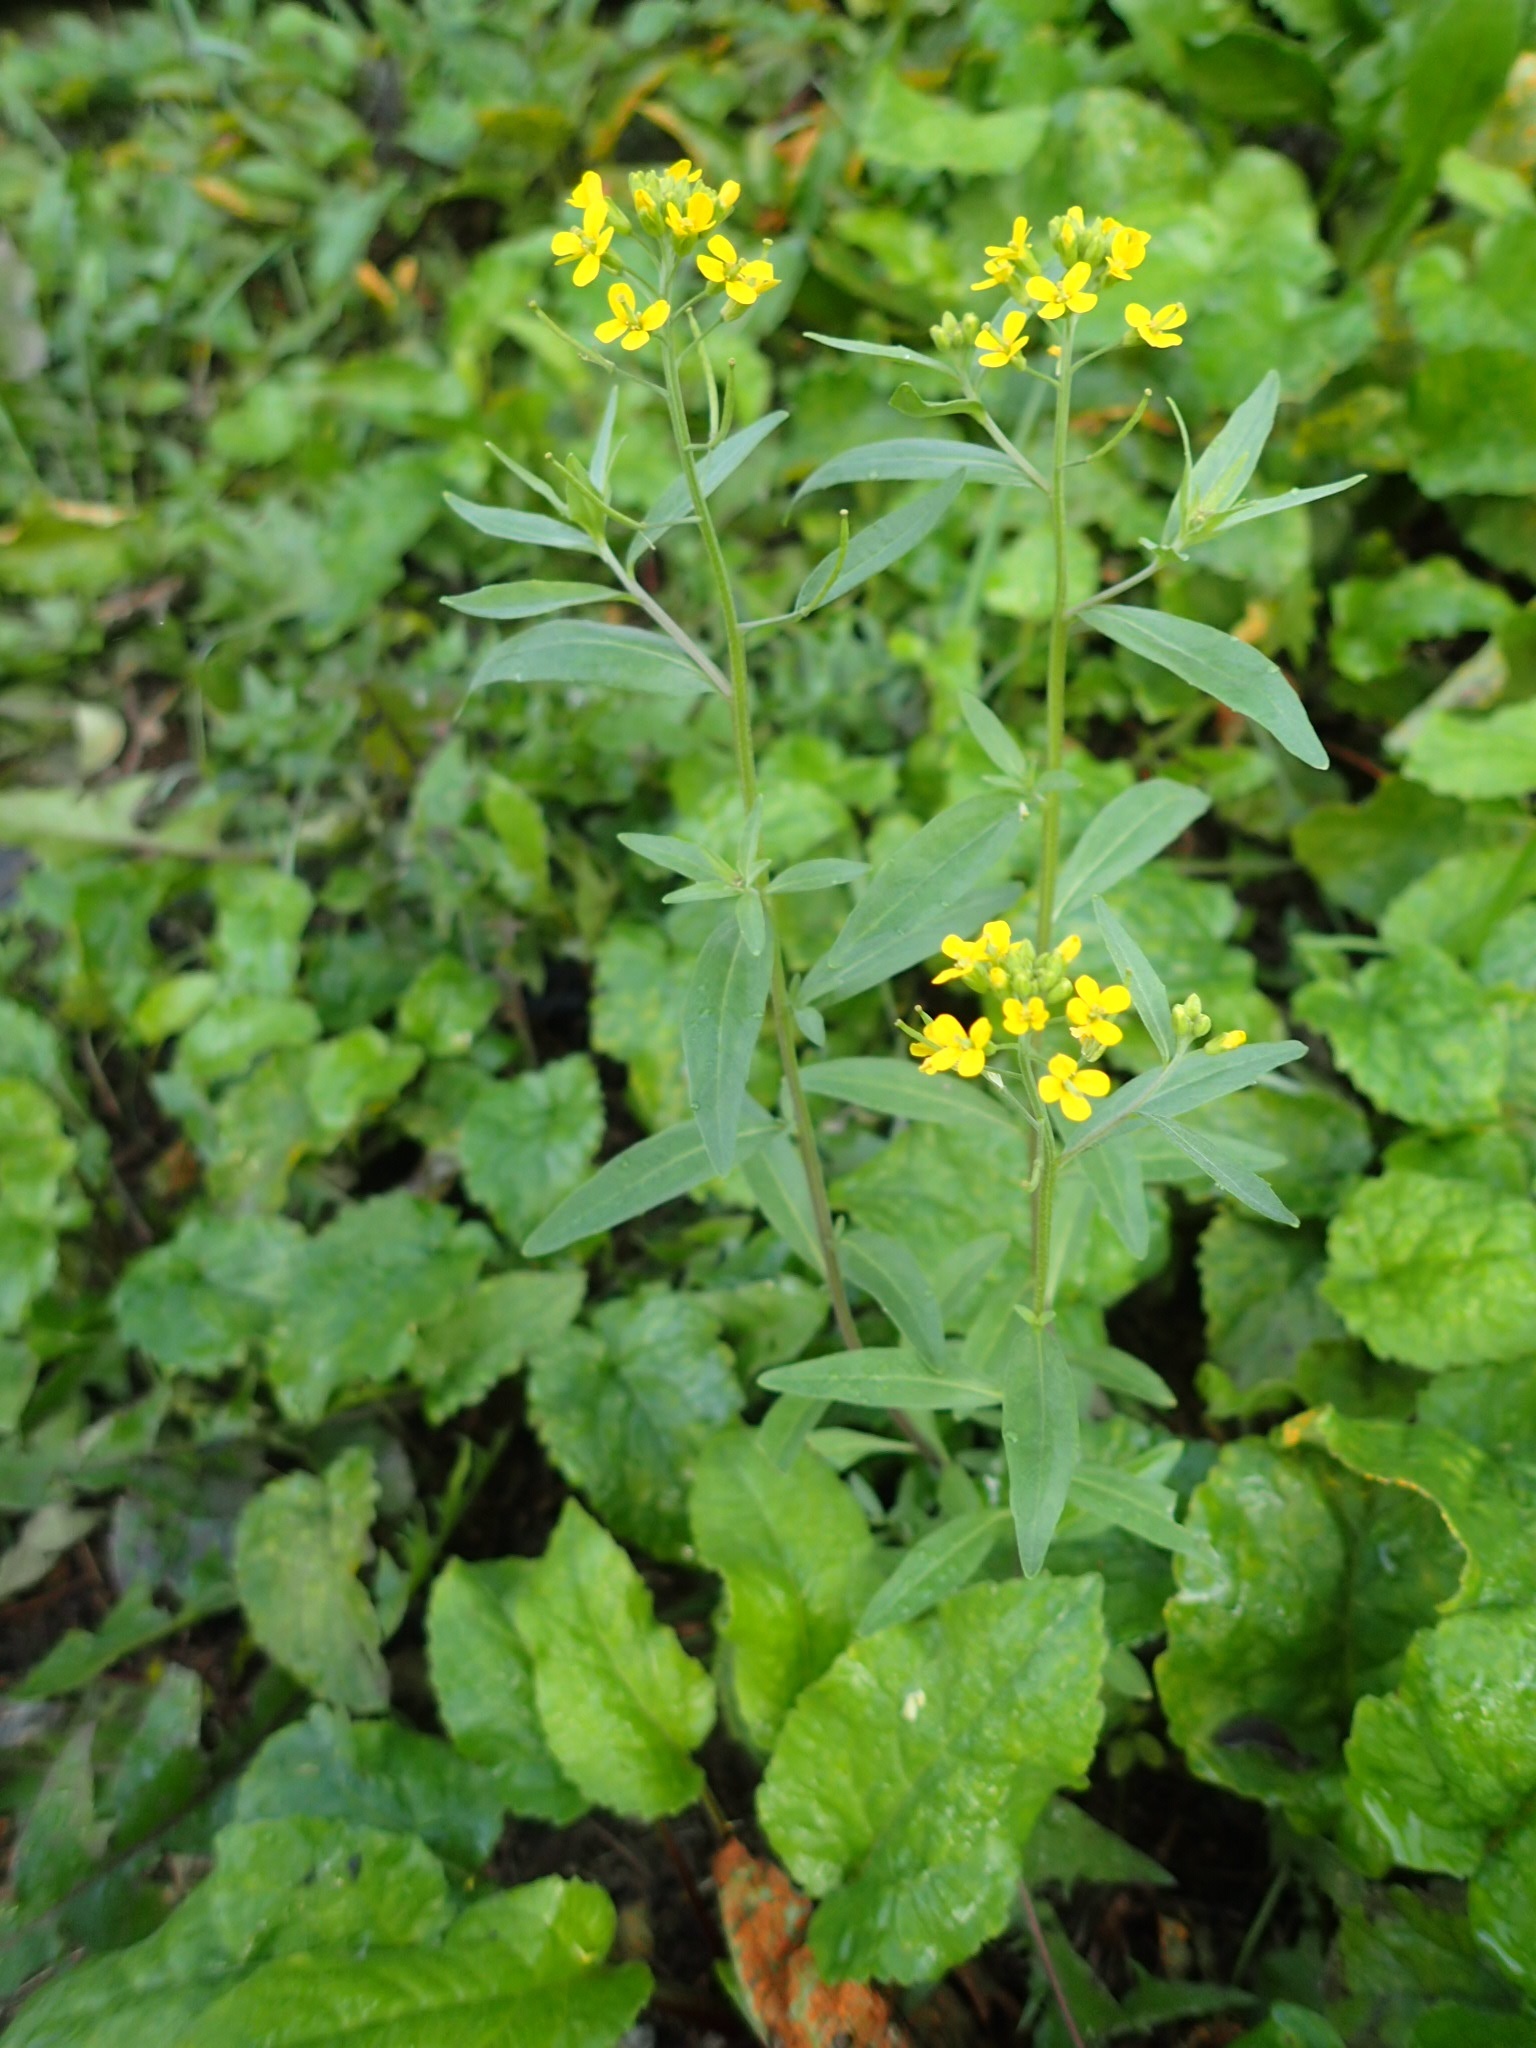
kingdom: Plantae
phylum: Tracheophyta
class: Magnoliopsida
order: Brassicales
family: Brassicaceae
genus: Erysimum
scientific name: Erysimum cheiranthoides
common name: Treacle mustard
